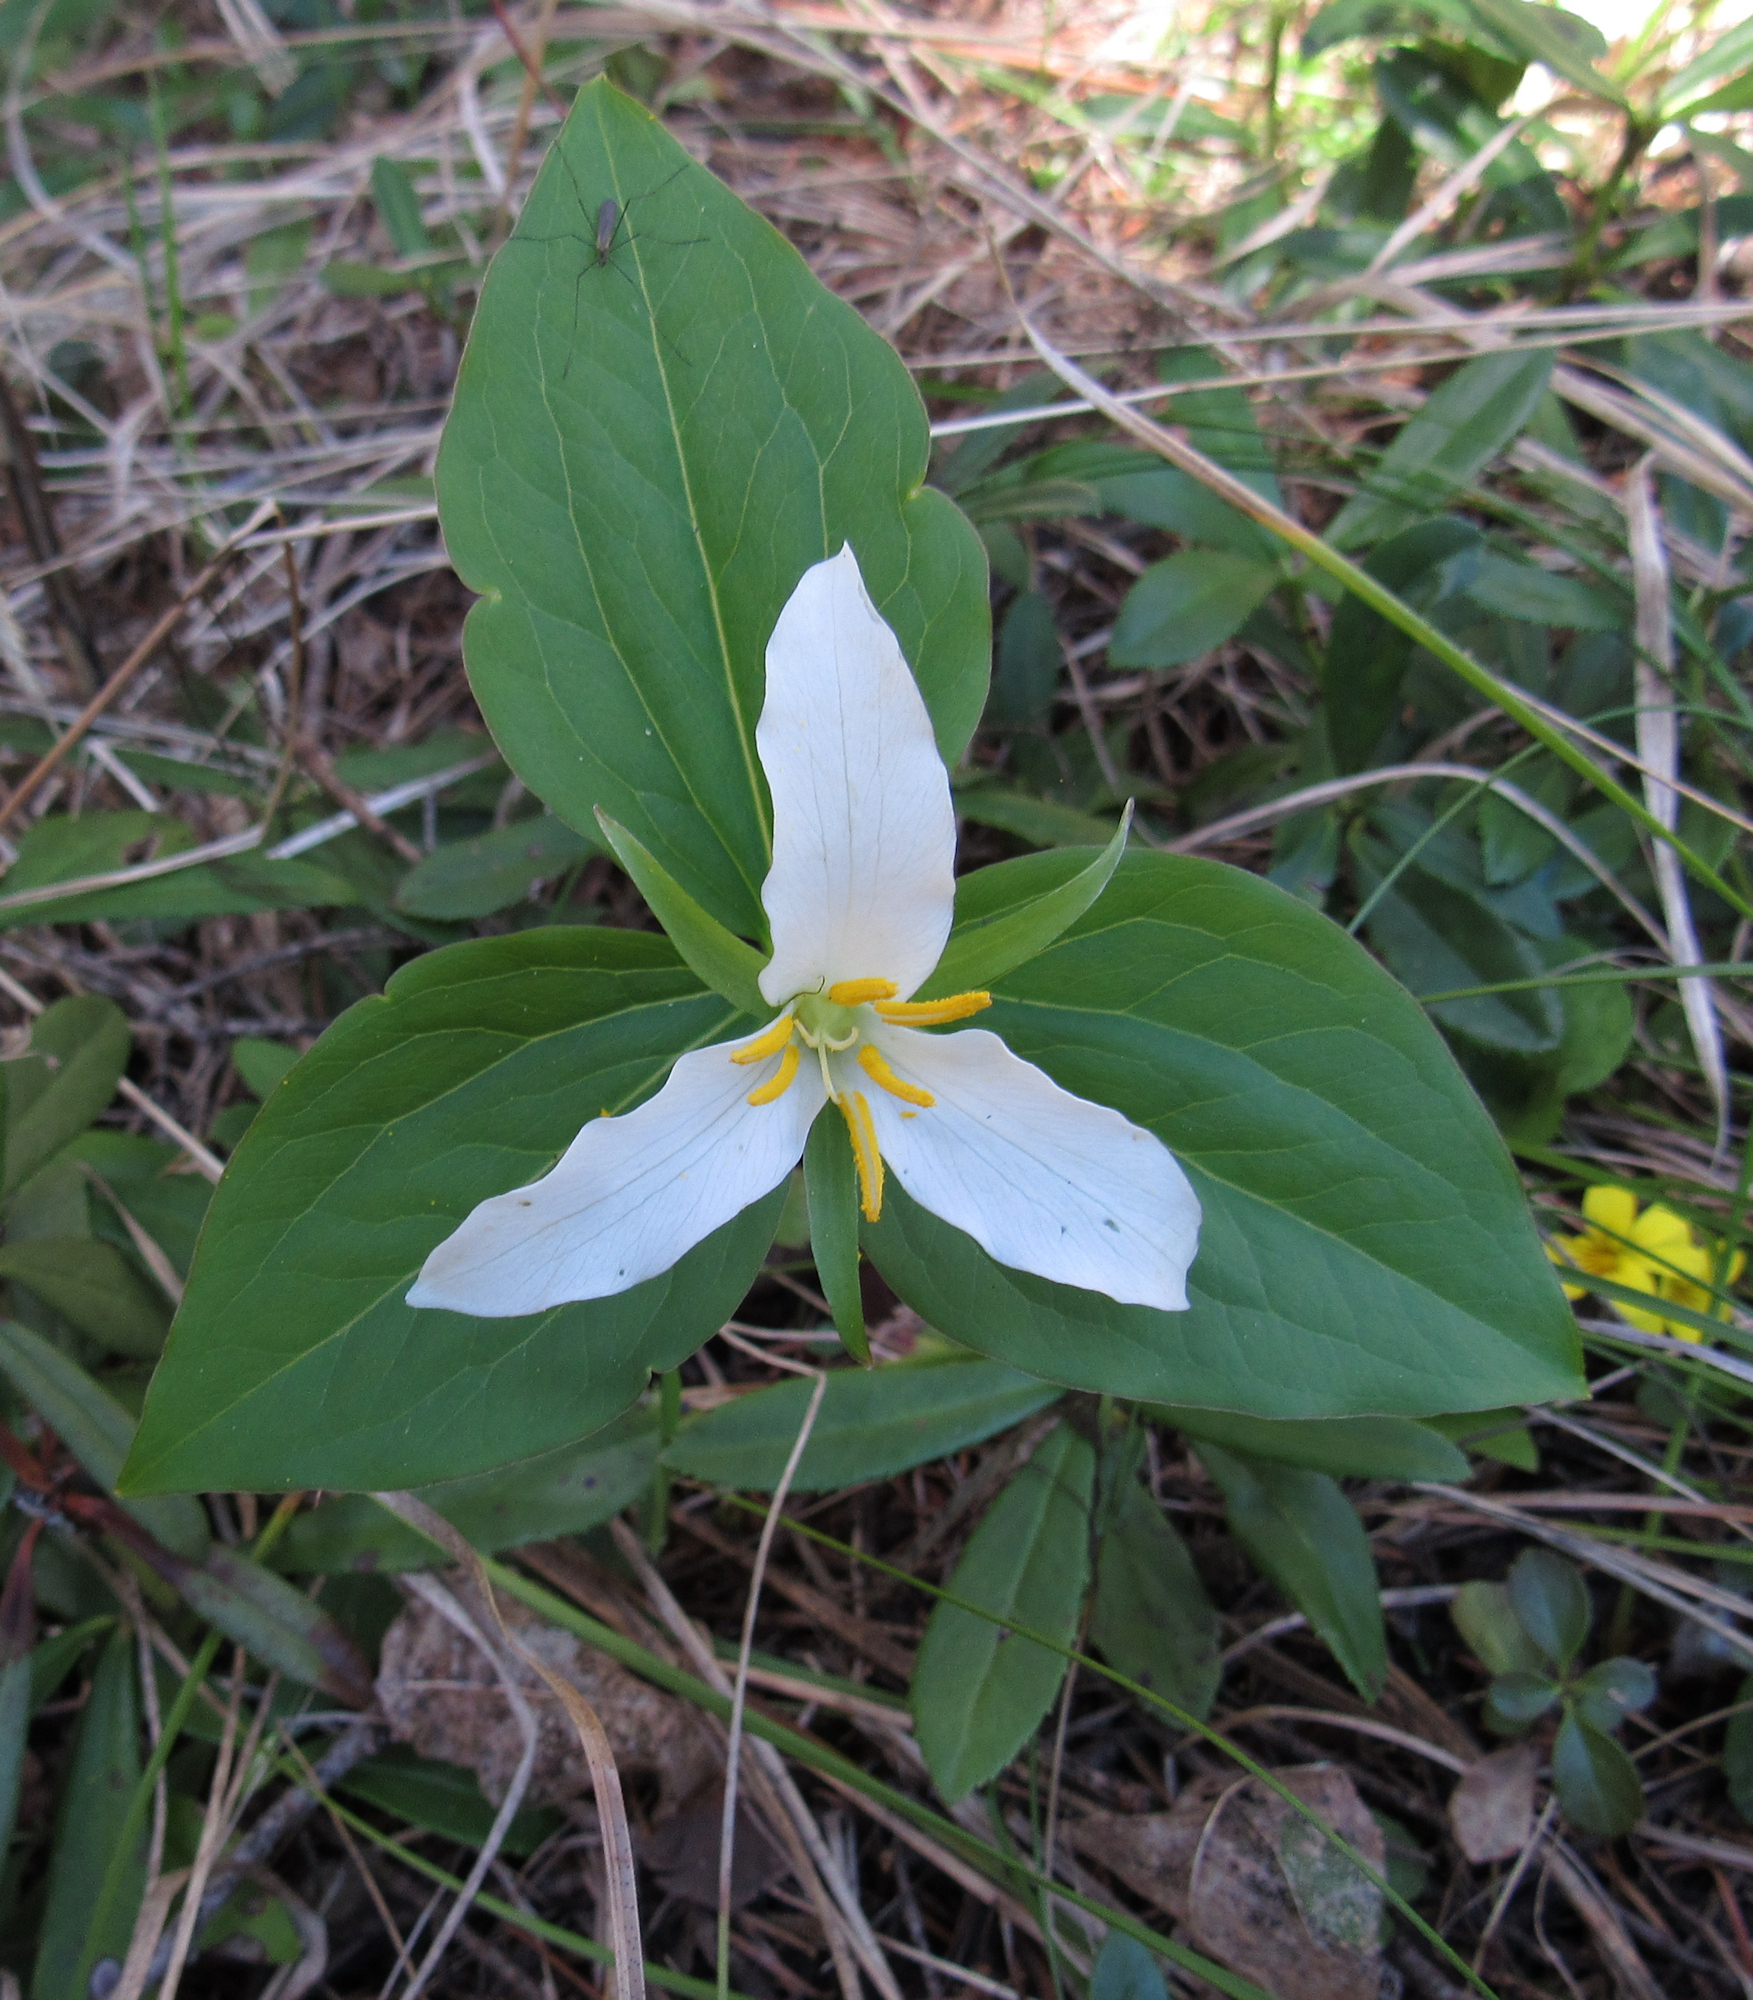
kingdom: Plantae
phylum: Tracheophyta
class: Liliopsida
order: Liliales
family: Melanthiaceae
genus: Trillium
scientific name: Trillium ovatum
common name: Pacific trillium
